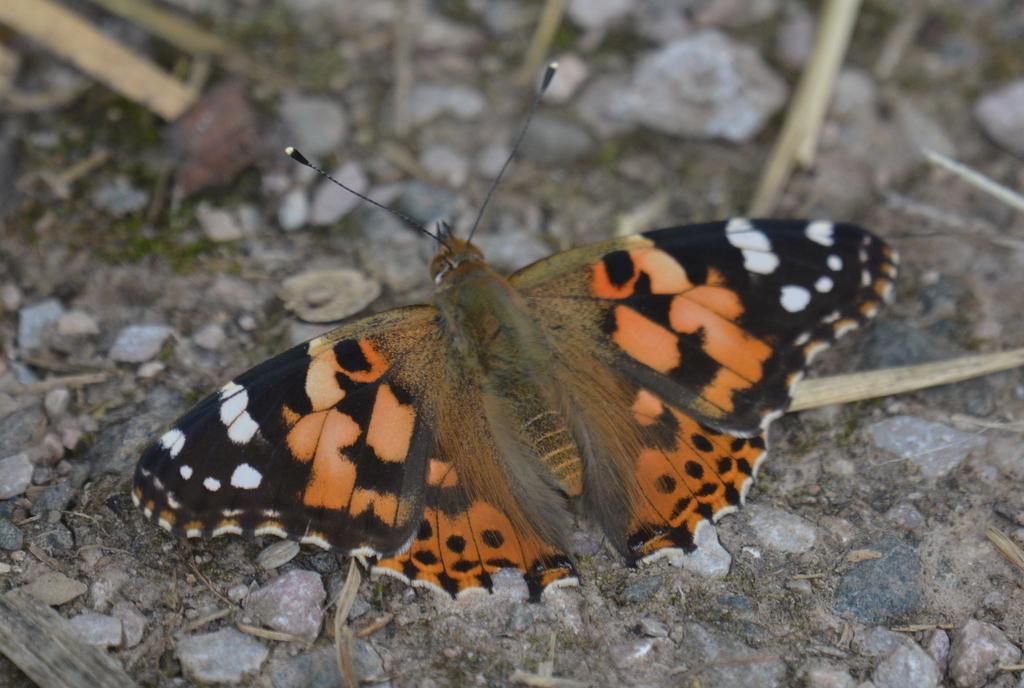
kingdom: Animalia
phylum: Arthropoda
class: Insecta
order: Lepidoptera
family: Nymphalidae
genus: Vanessa
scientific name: Vanessa cardui
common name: Painted lady
